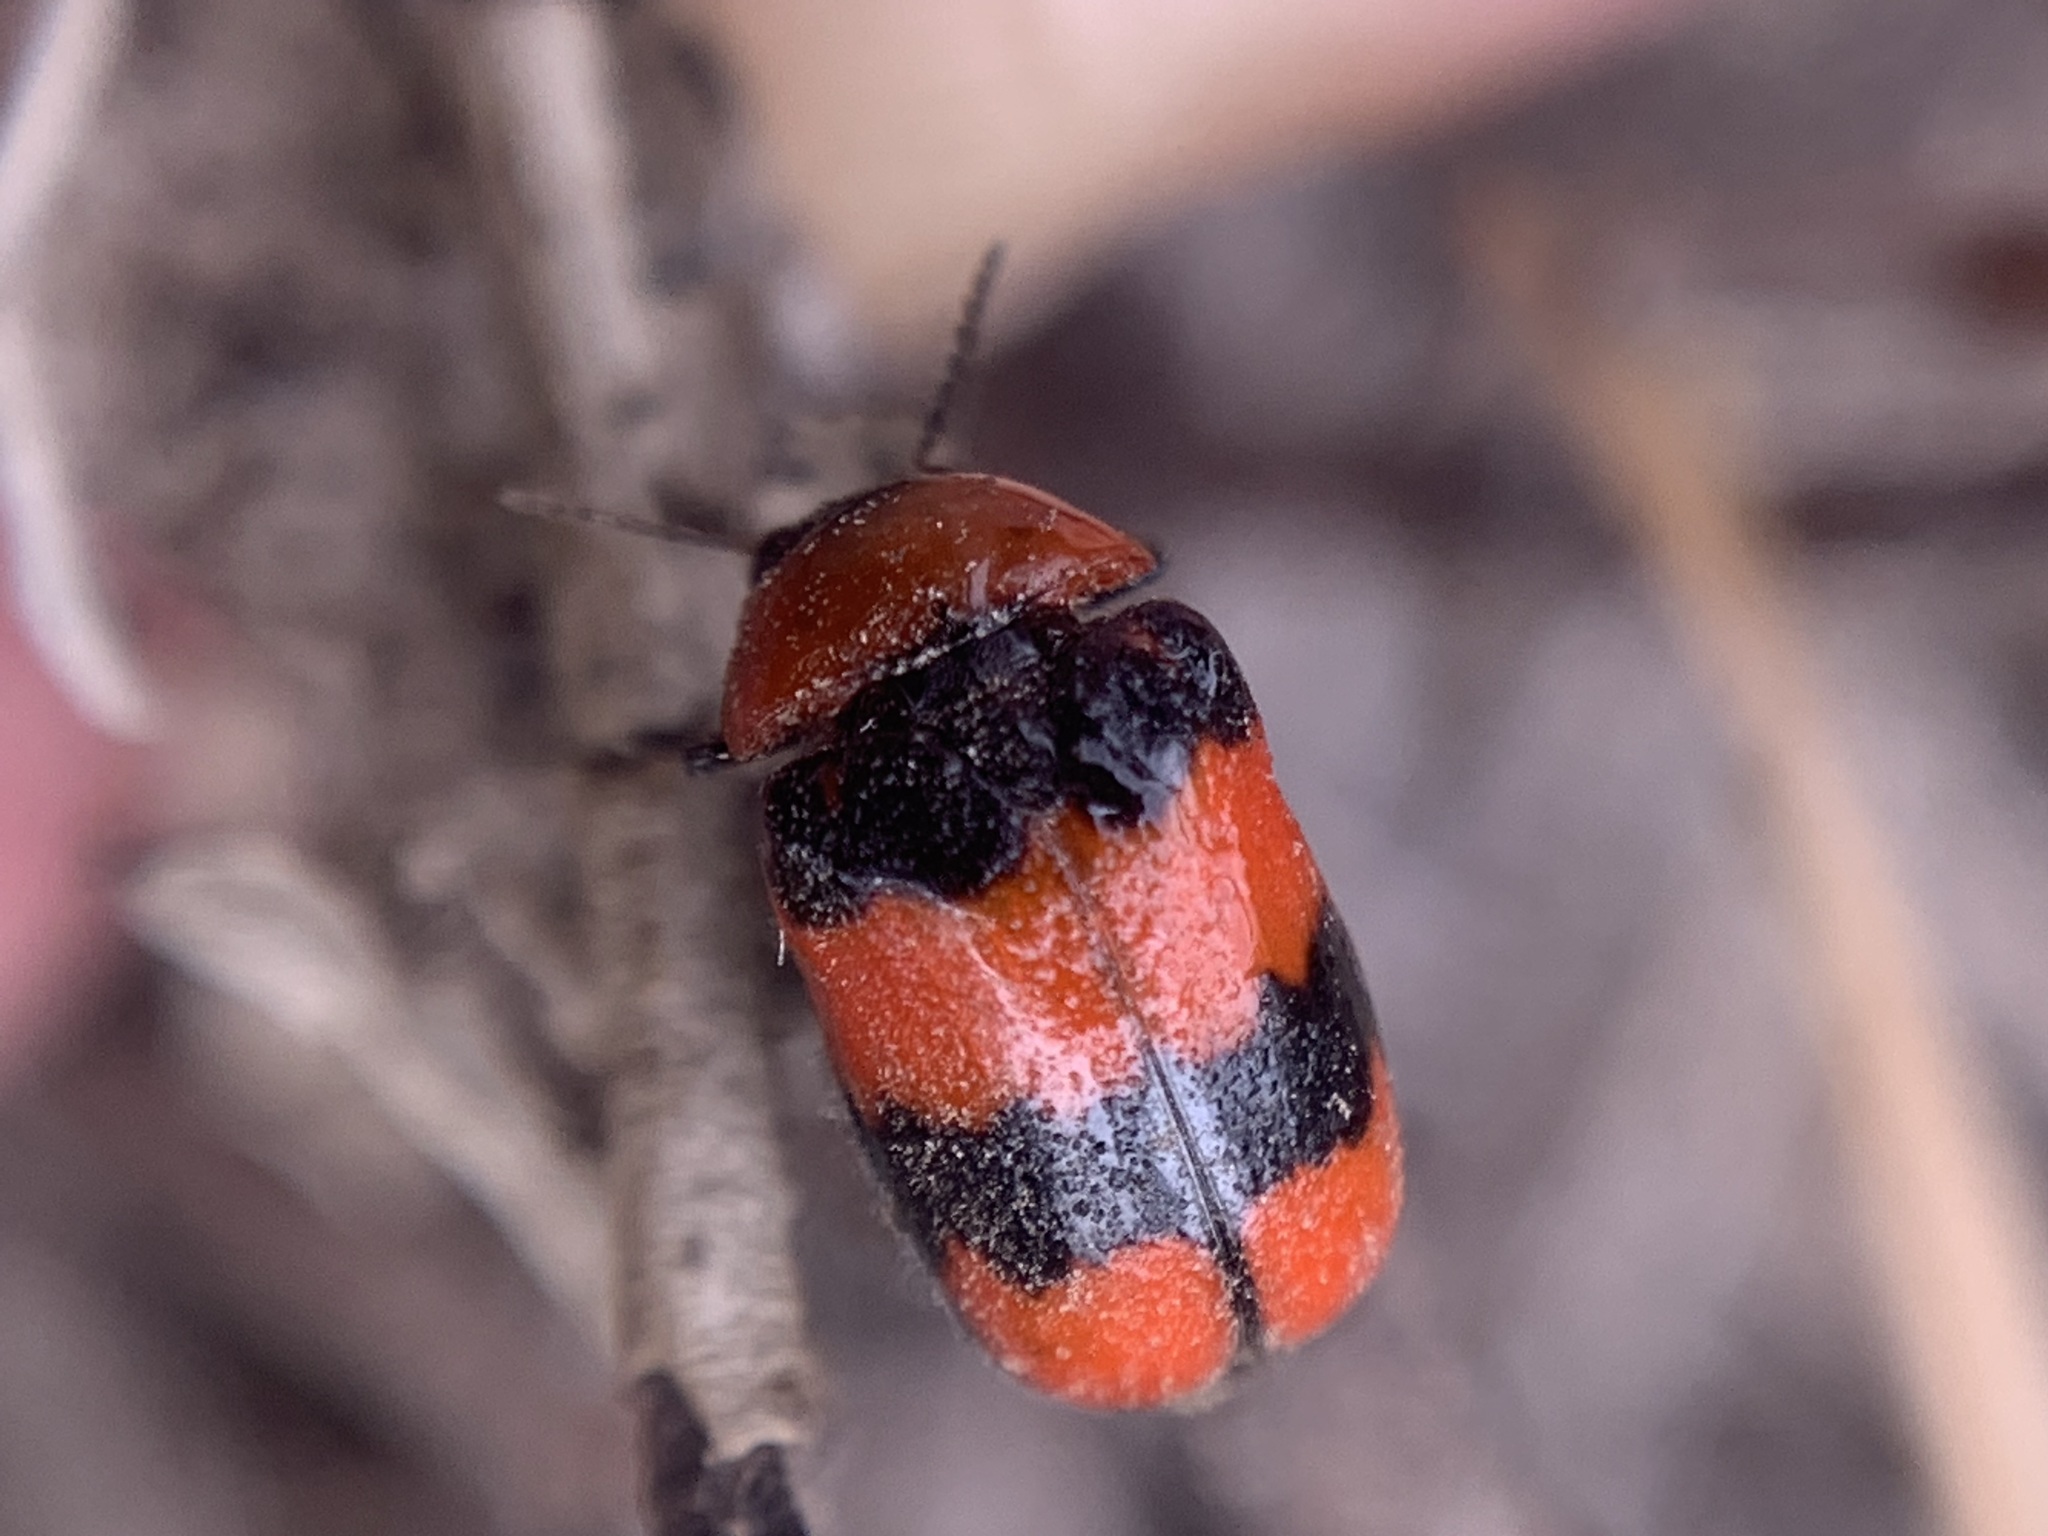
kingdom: Animalia
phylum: Arthropoda
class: Insecta
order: Coleoptera
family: Chrysomelidae
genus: Dachrys
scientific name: Dachrys
